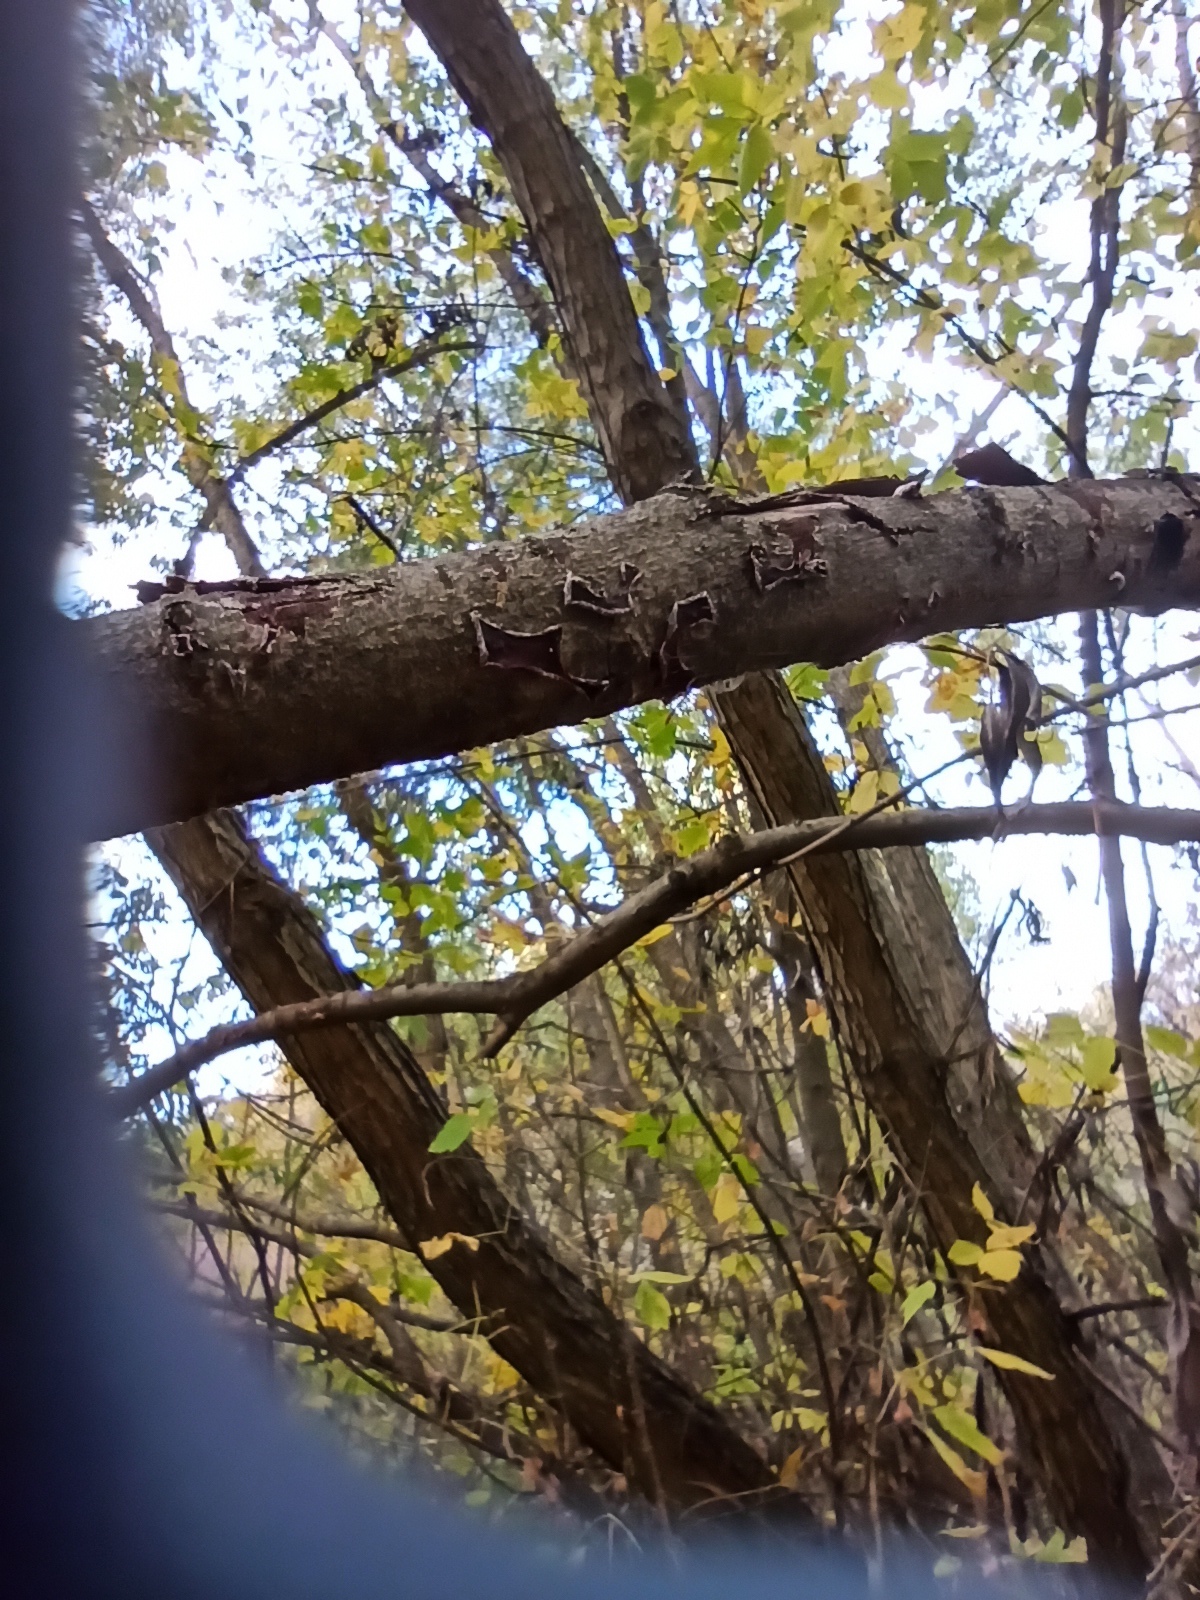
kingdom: Fungi
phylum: Basidiomycota
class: Agaricomycetes
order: Corticiales
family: Vuilleminiaceae
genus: Cytidia
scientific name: Cytidia salicina
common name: Scarlet splash
